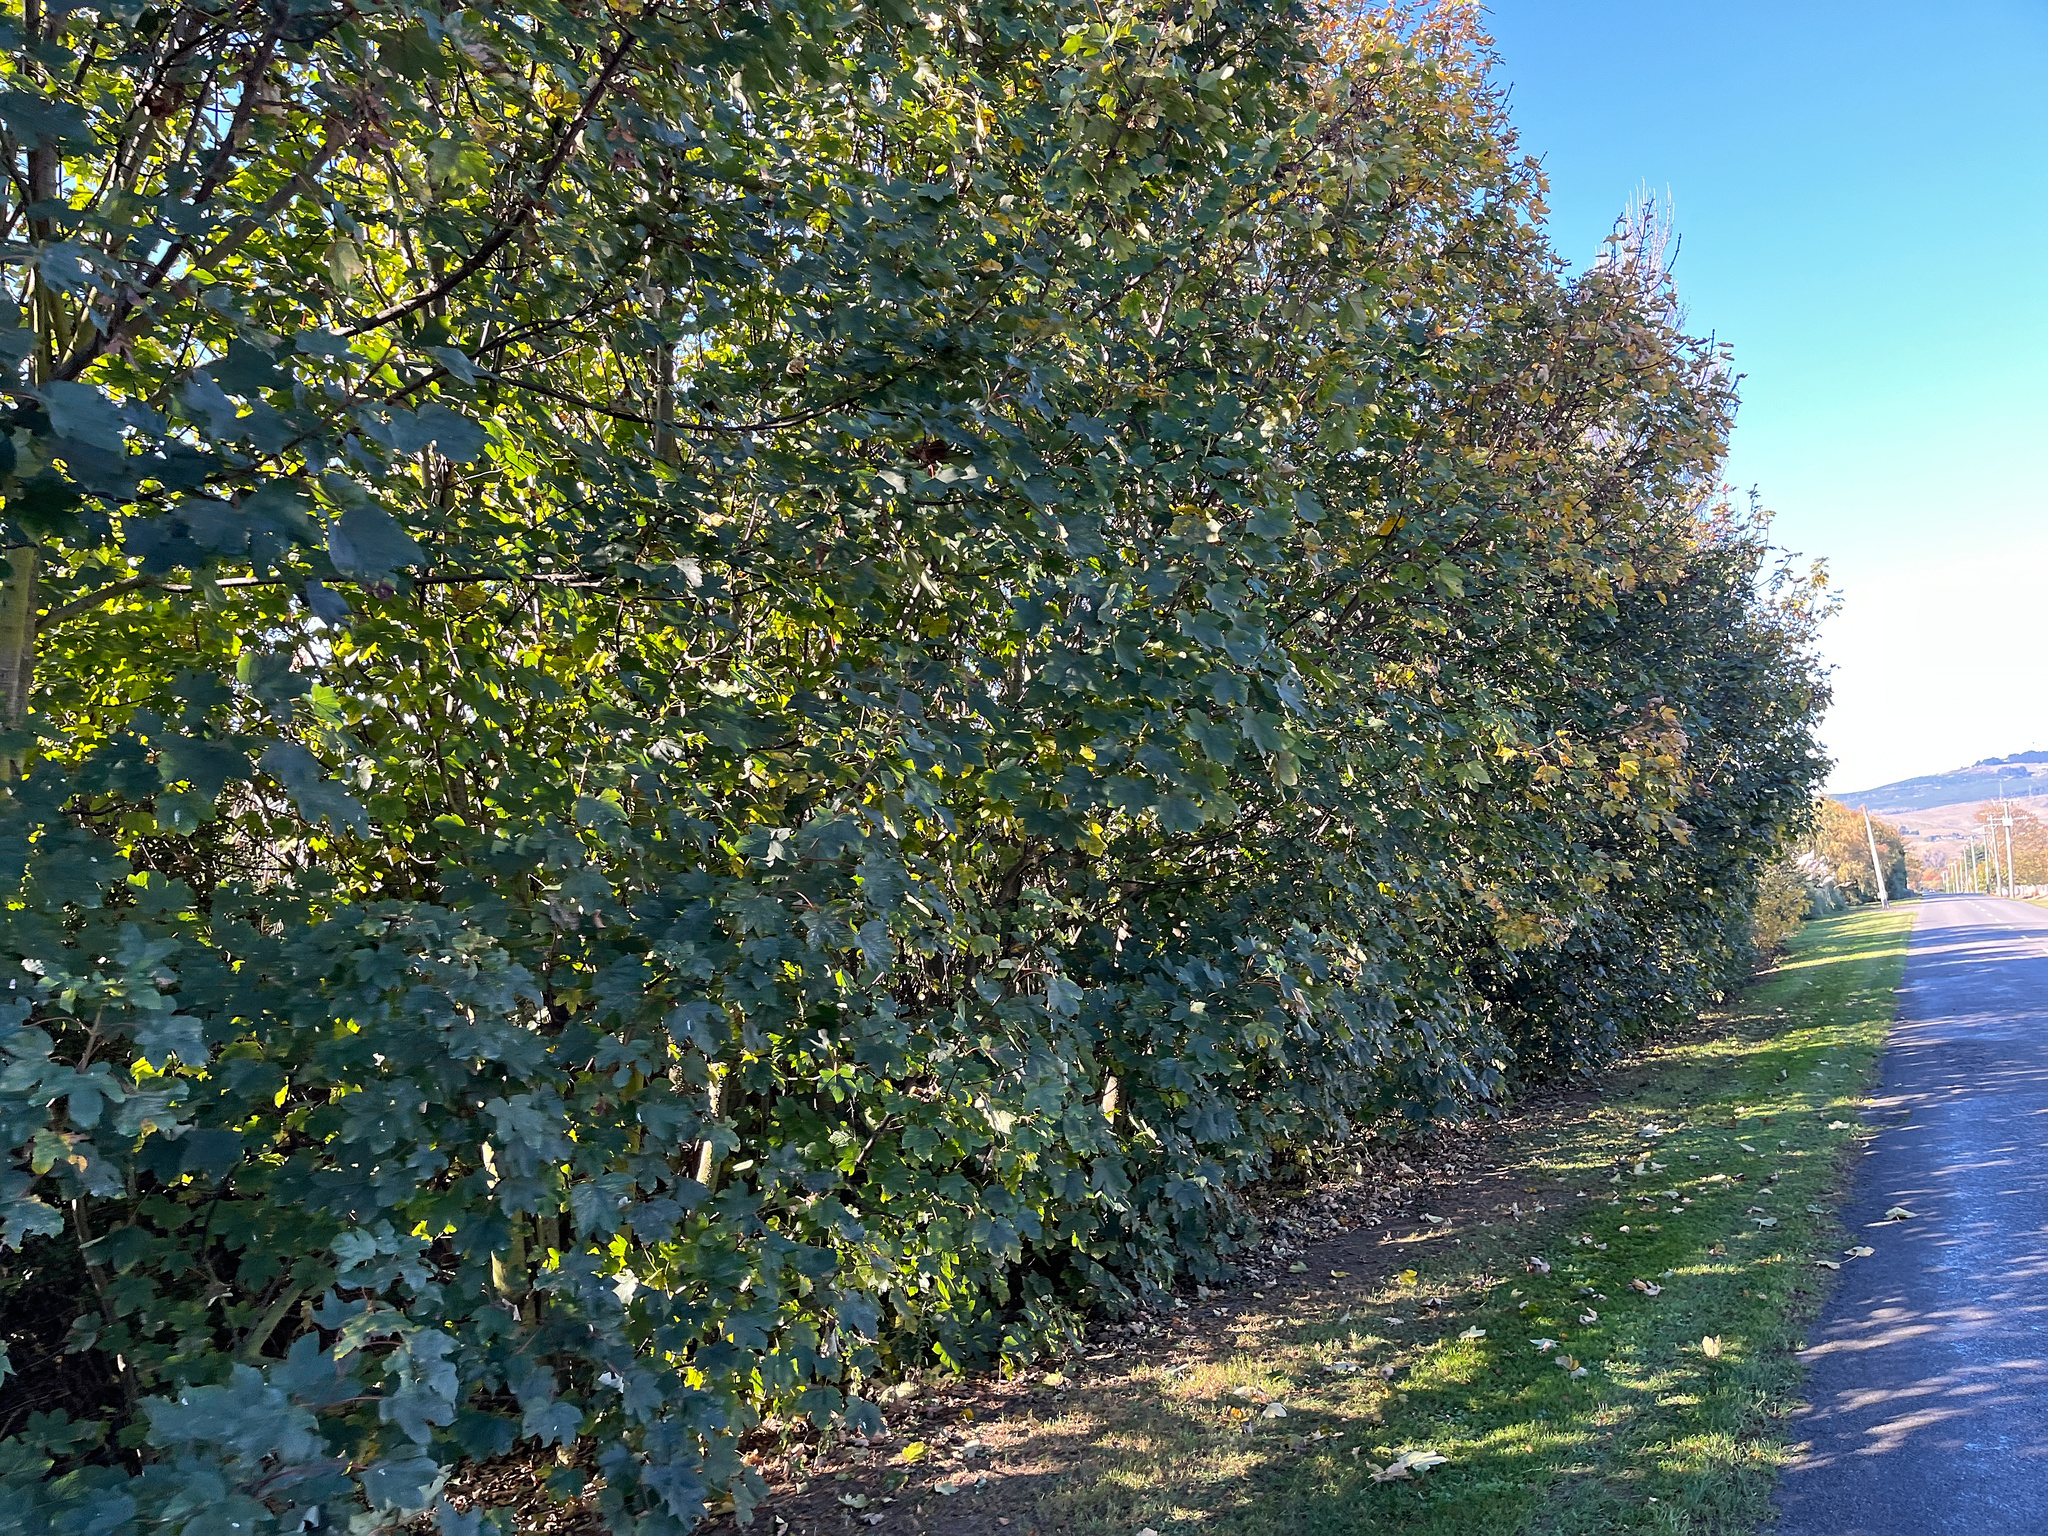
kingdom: Plantae
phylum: Tracheophyta
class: Magnoliopsida
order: Sapindales
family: Sapindaceae
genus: Acer
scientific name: Acer pseudoplatanus
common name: Sycamore
